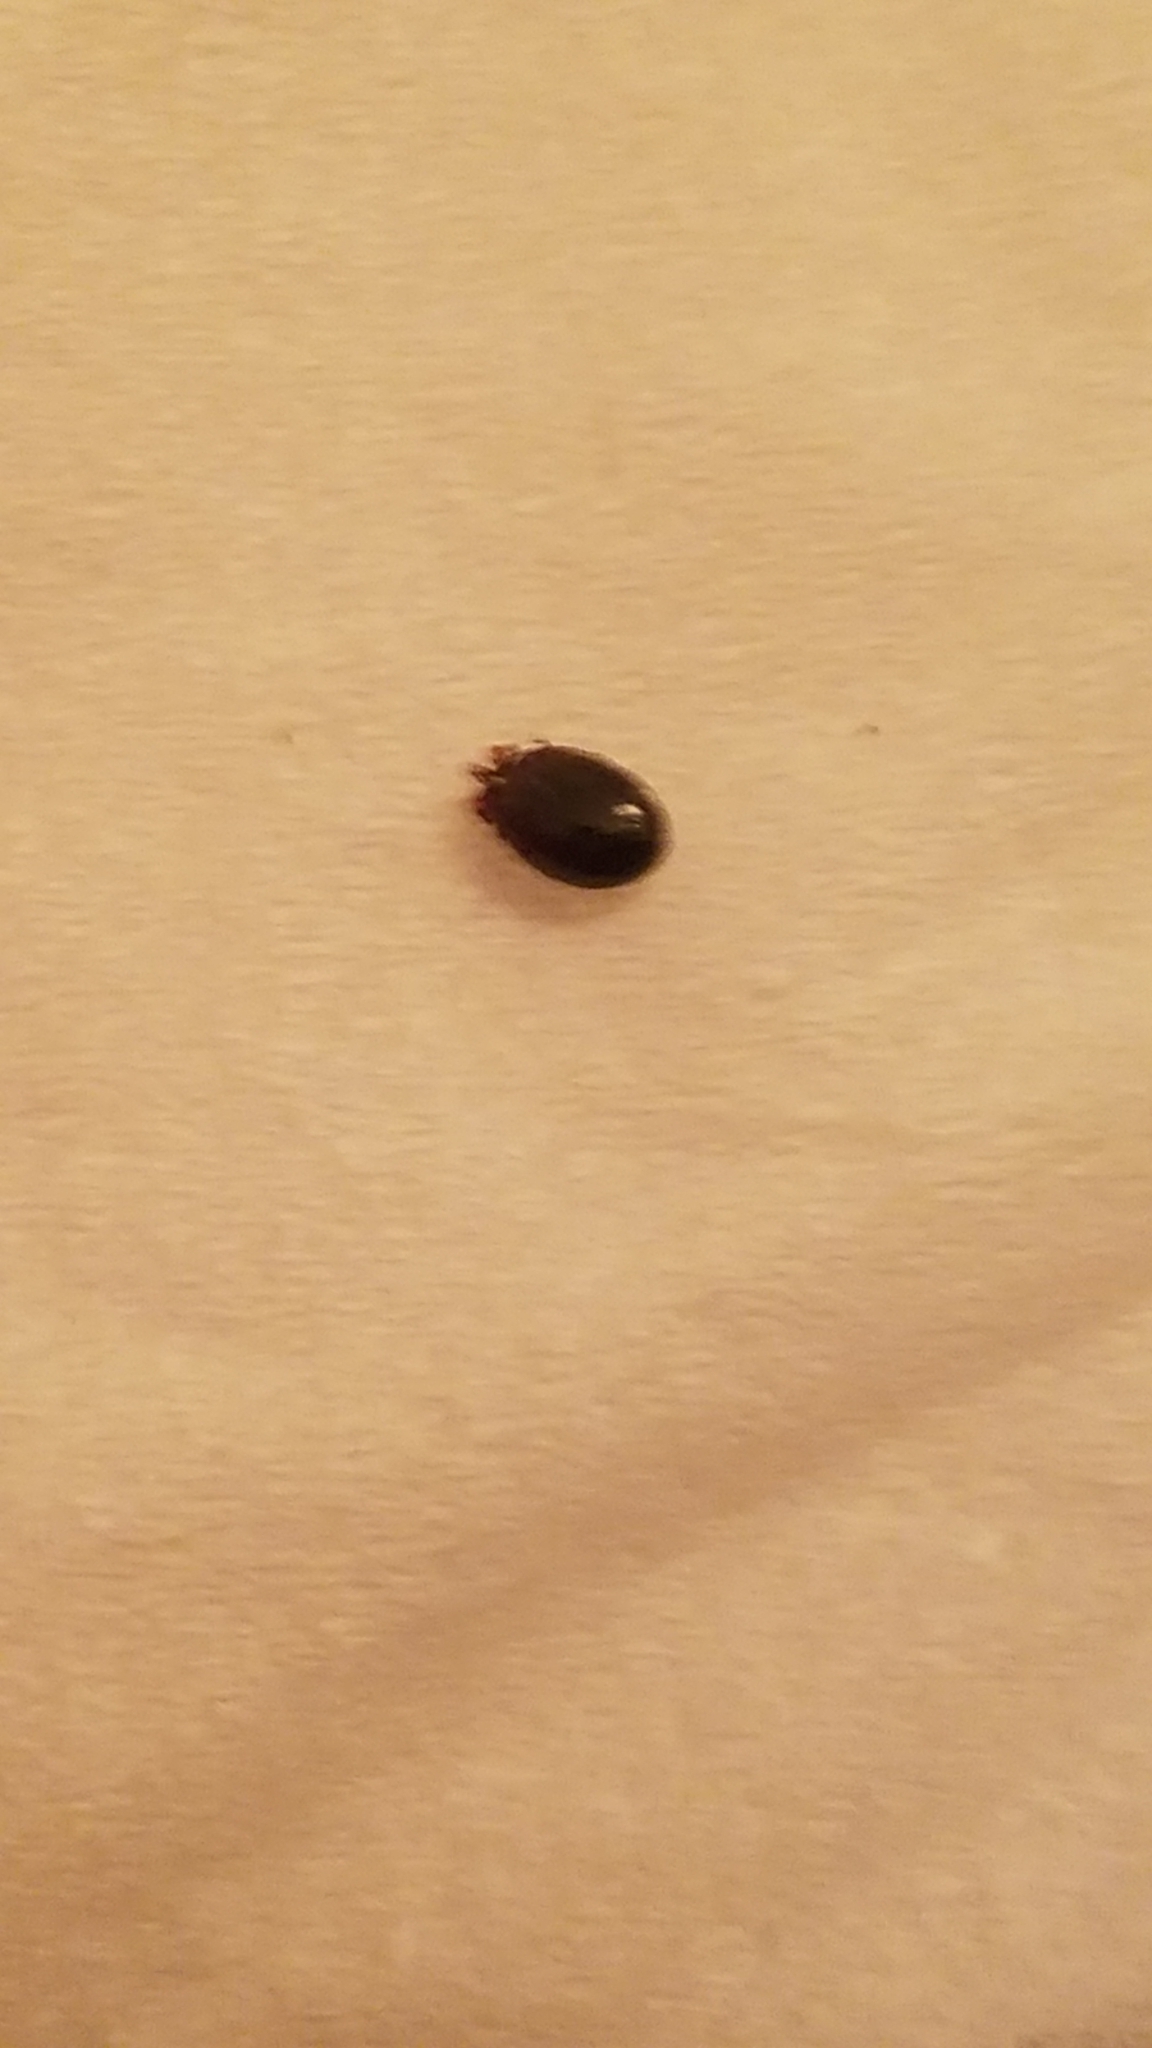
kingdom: Animalia
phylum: Arthropoda
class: Arachnida
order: Ixodida
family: Ixodidae
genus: Ixodes
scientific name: Ixodes scapularis
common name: Black legged tick
